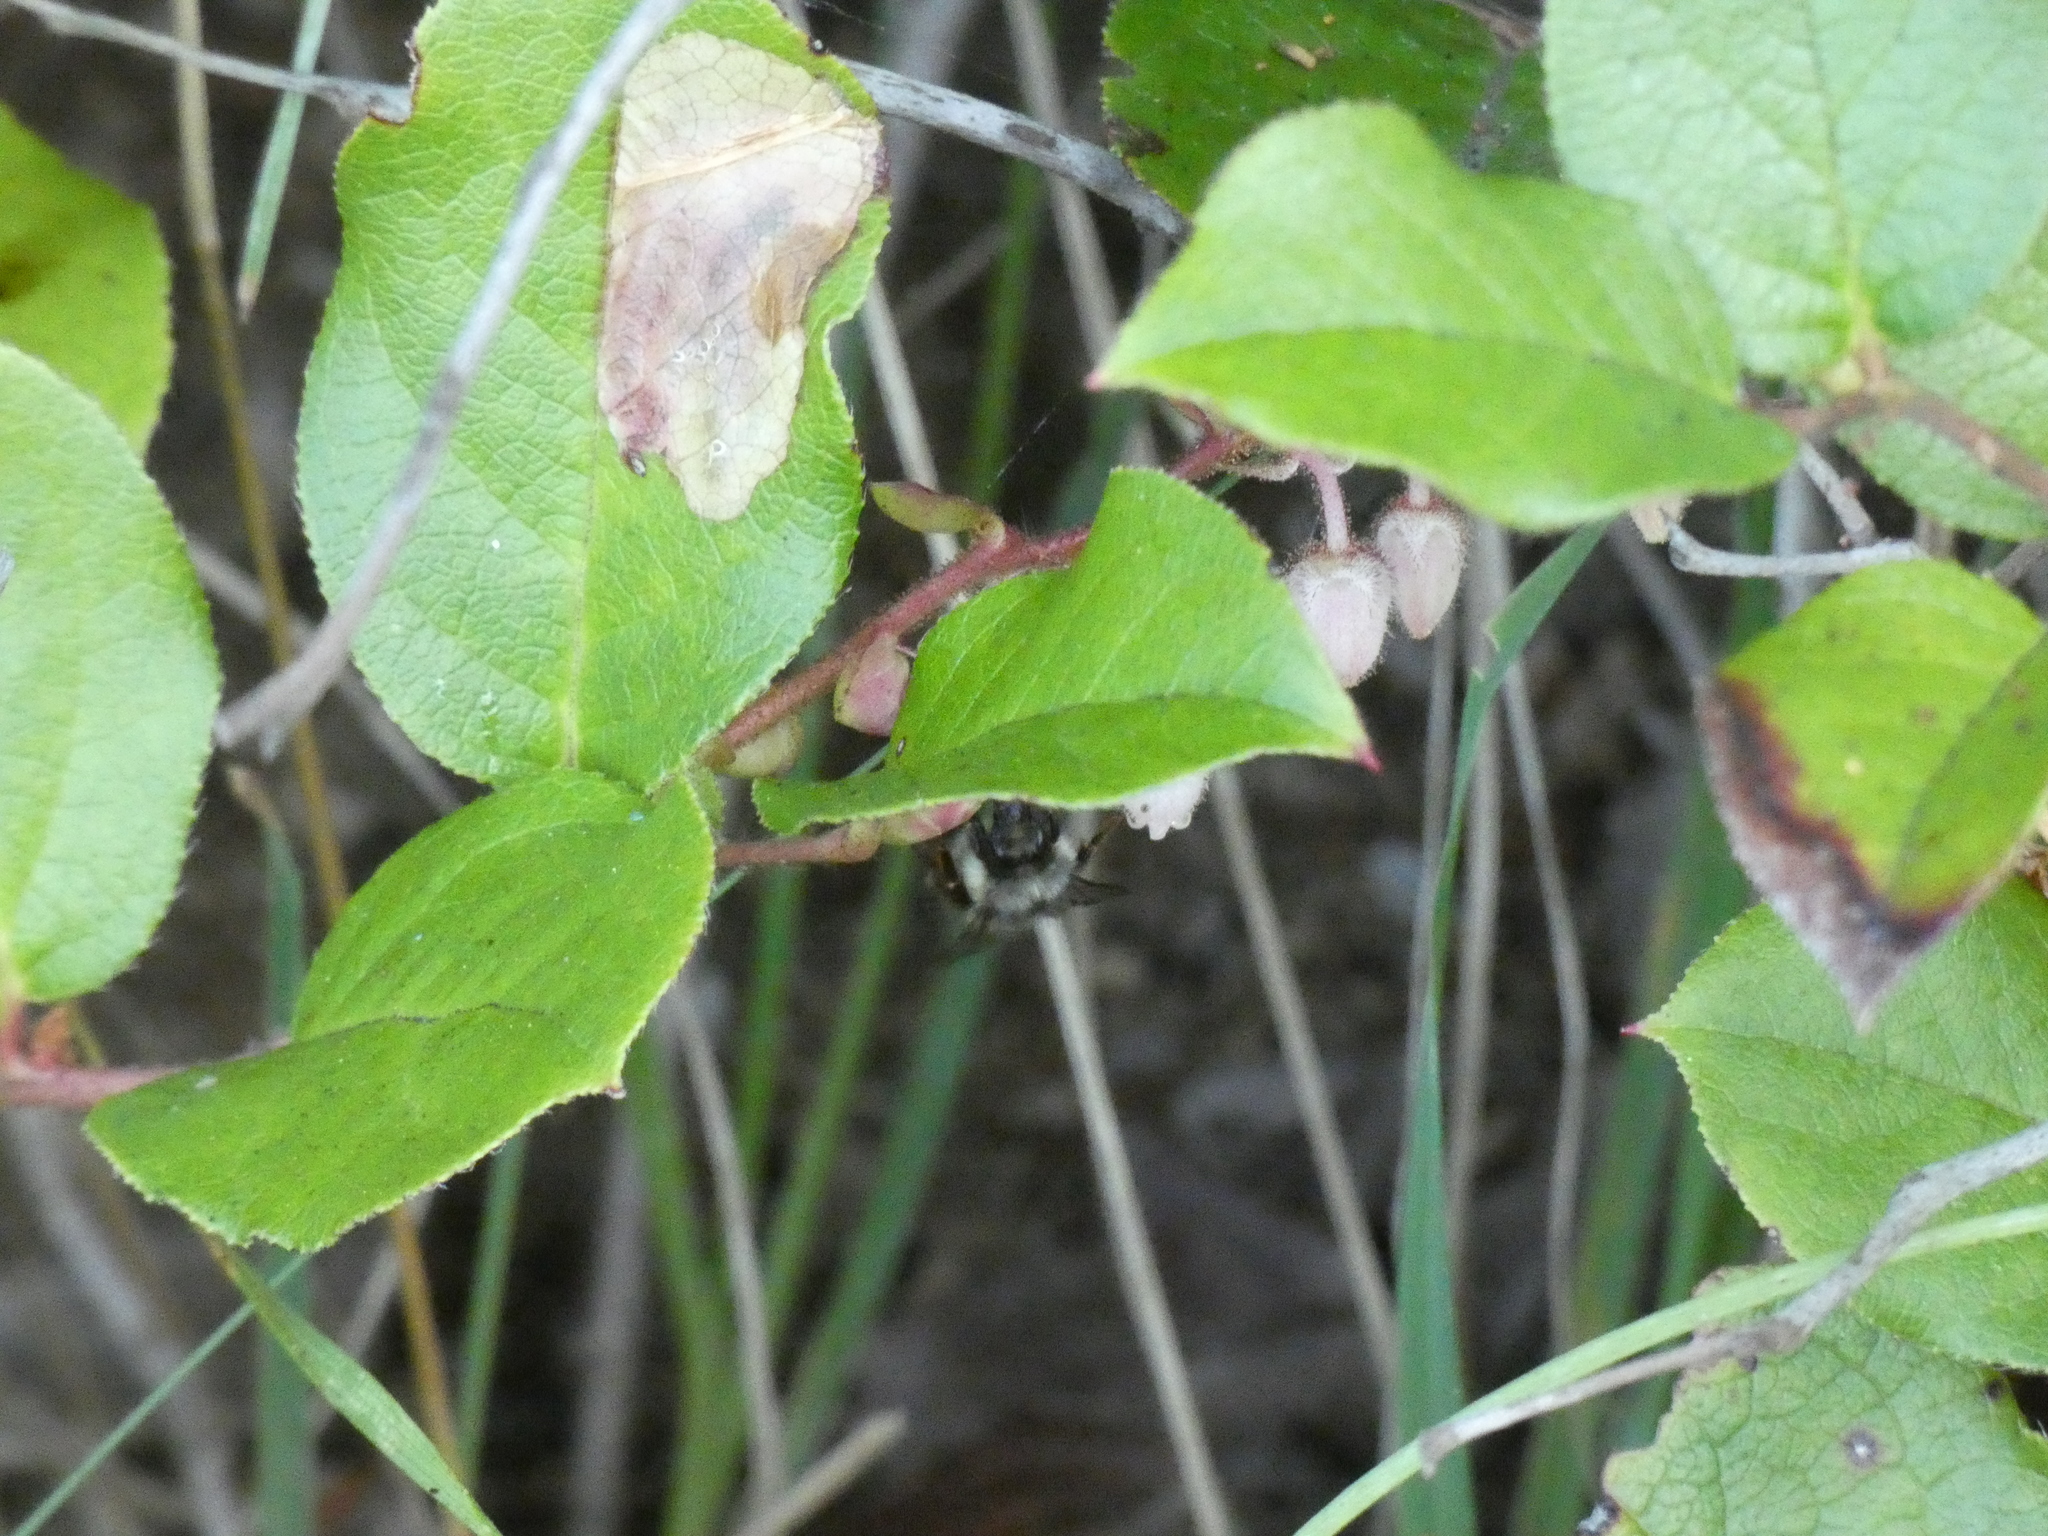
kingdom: Animalia
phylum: Arthropoda
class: Insecta
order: Hymenoptera
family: Apidae
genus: Pyrobombus
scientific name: Pyrobombus
